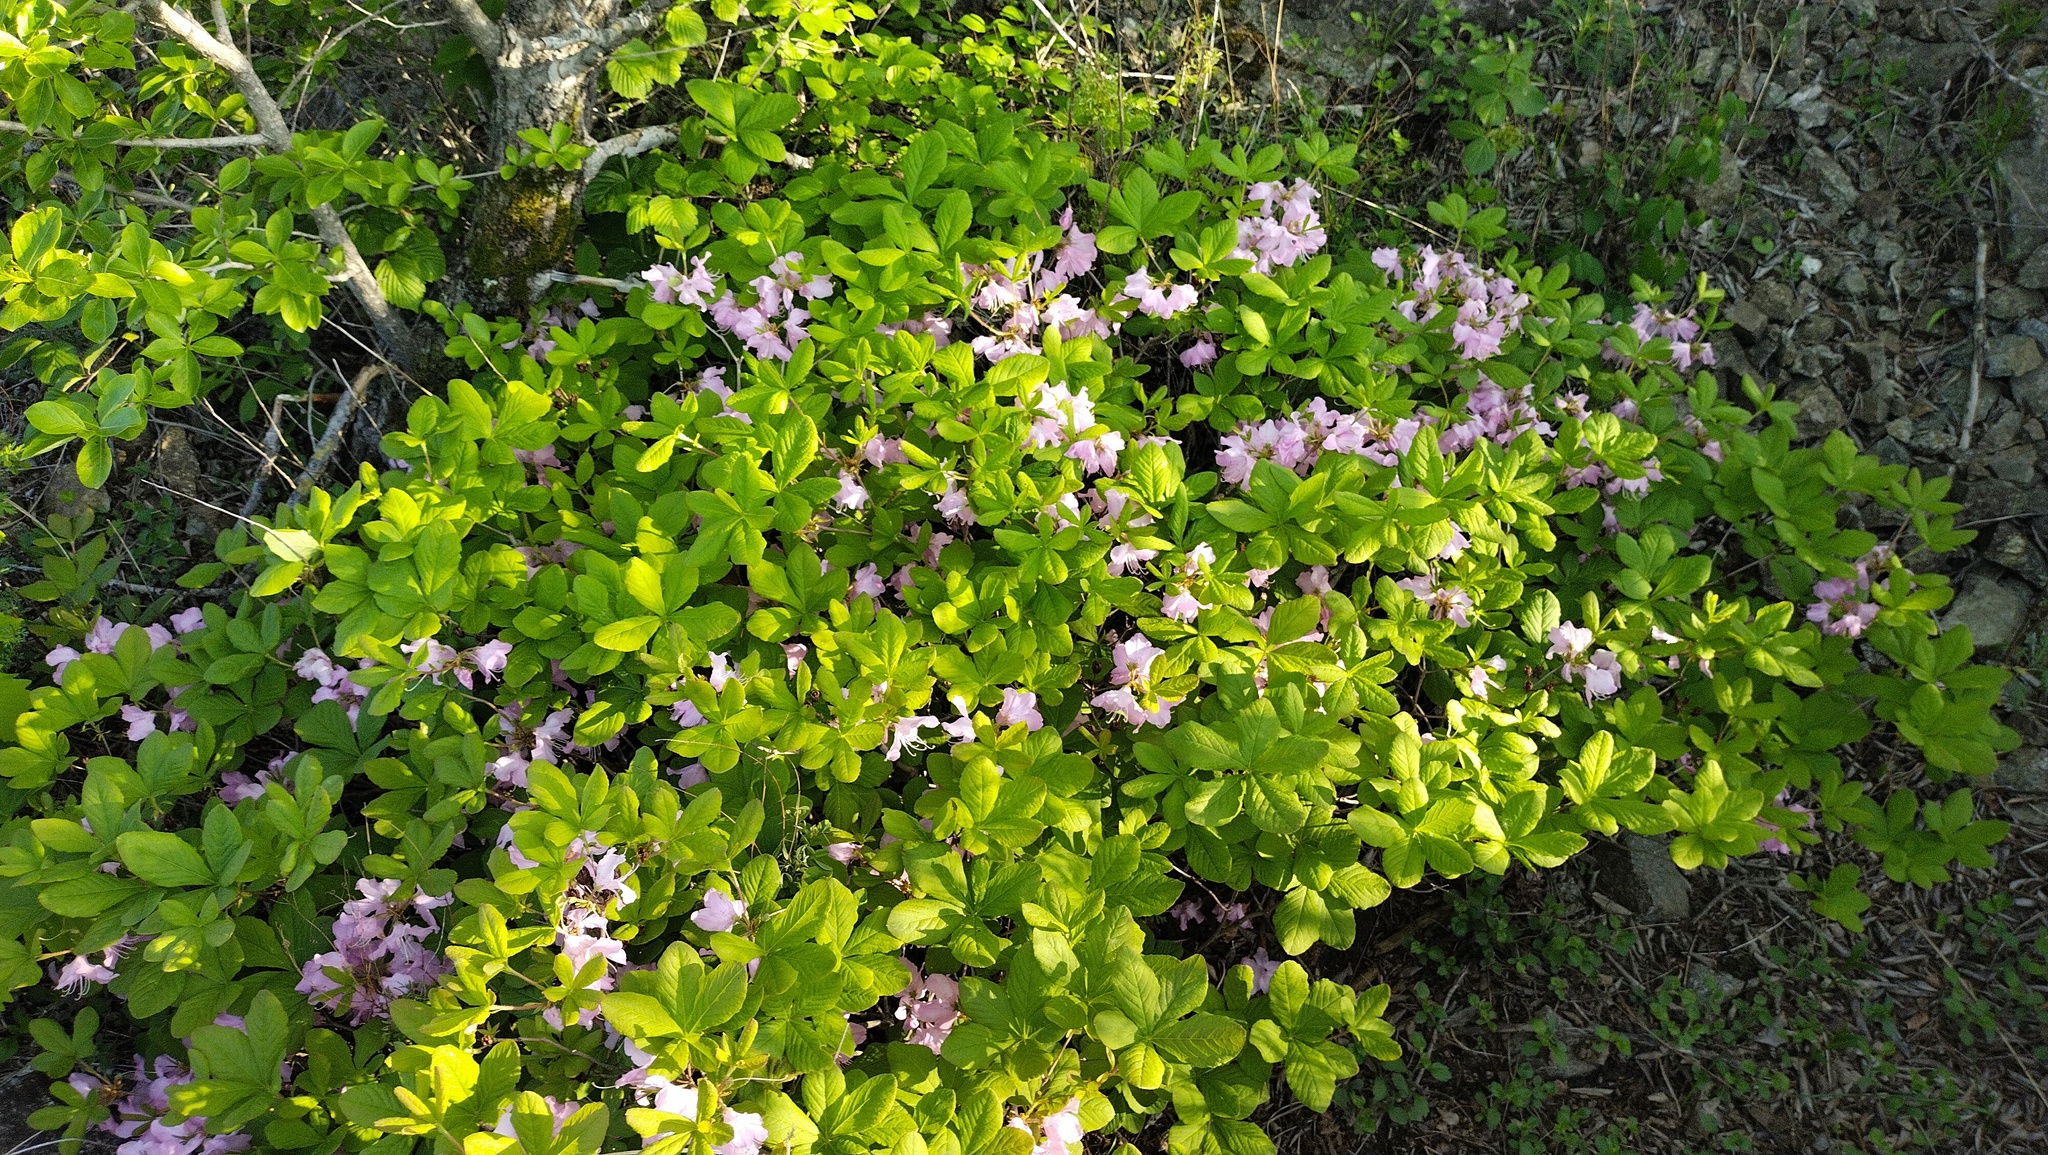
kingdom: Plantae
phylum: Tracheophyta
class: Magnoliopsida
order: Ericales
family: Ericaceae
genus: Rhododendron
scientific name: Rhododendron schlippenbachii
